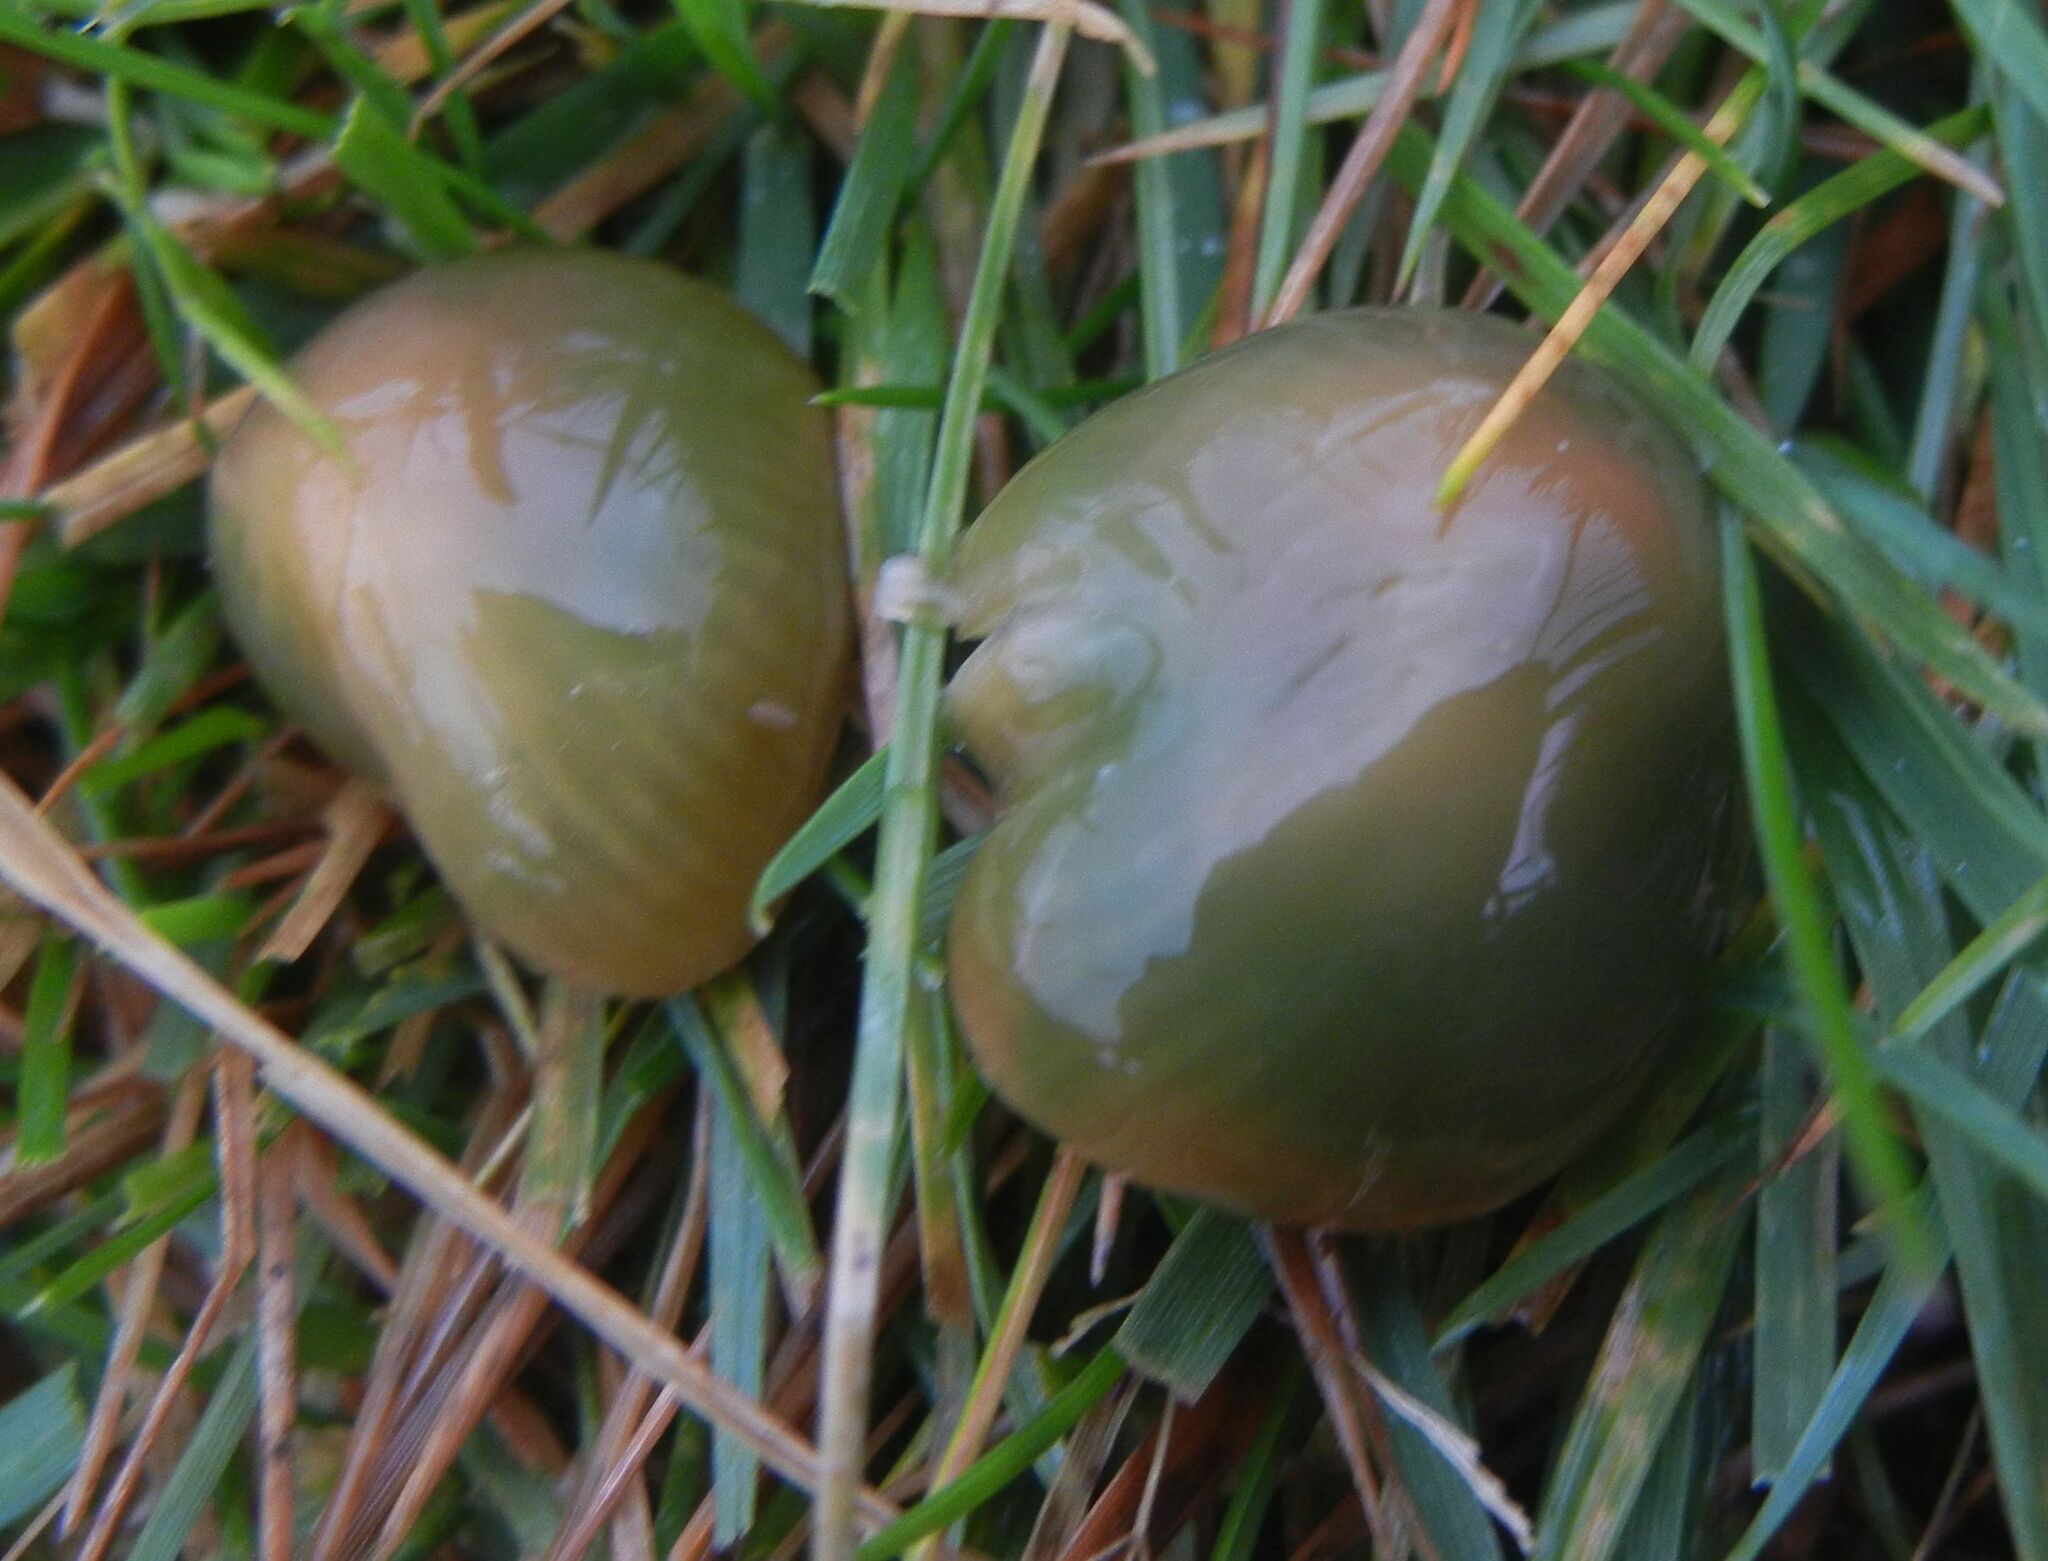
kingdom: Fungi
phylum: Basidiomycota
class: Agaricomycetes
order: Agaricales
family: Hygrophoraceae
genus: Gliophorus
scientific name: Gliophorus psittacinus
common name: Parrot wax-cap
